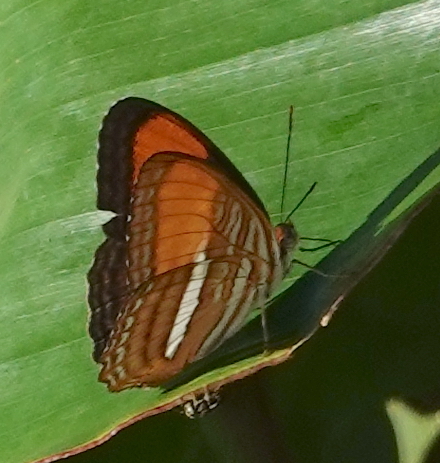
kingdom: Animalia
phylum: Arthropoda
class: Insecta
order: Lepidoptera
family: Nymphalidae
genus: Limenitis
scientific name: Limenitis cytherea
